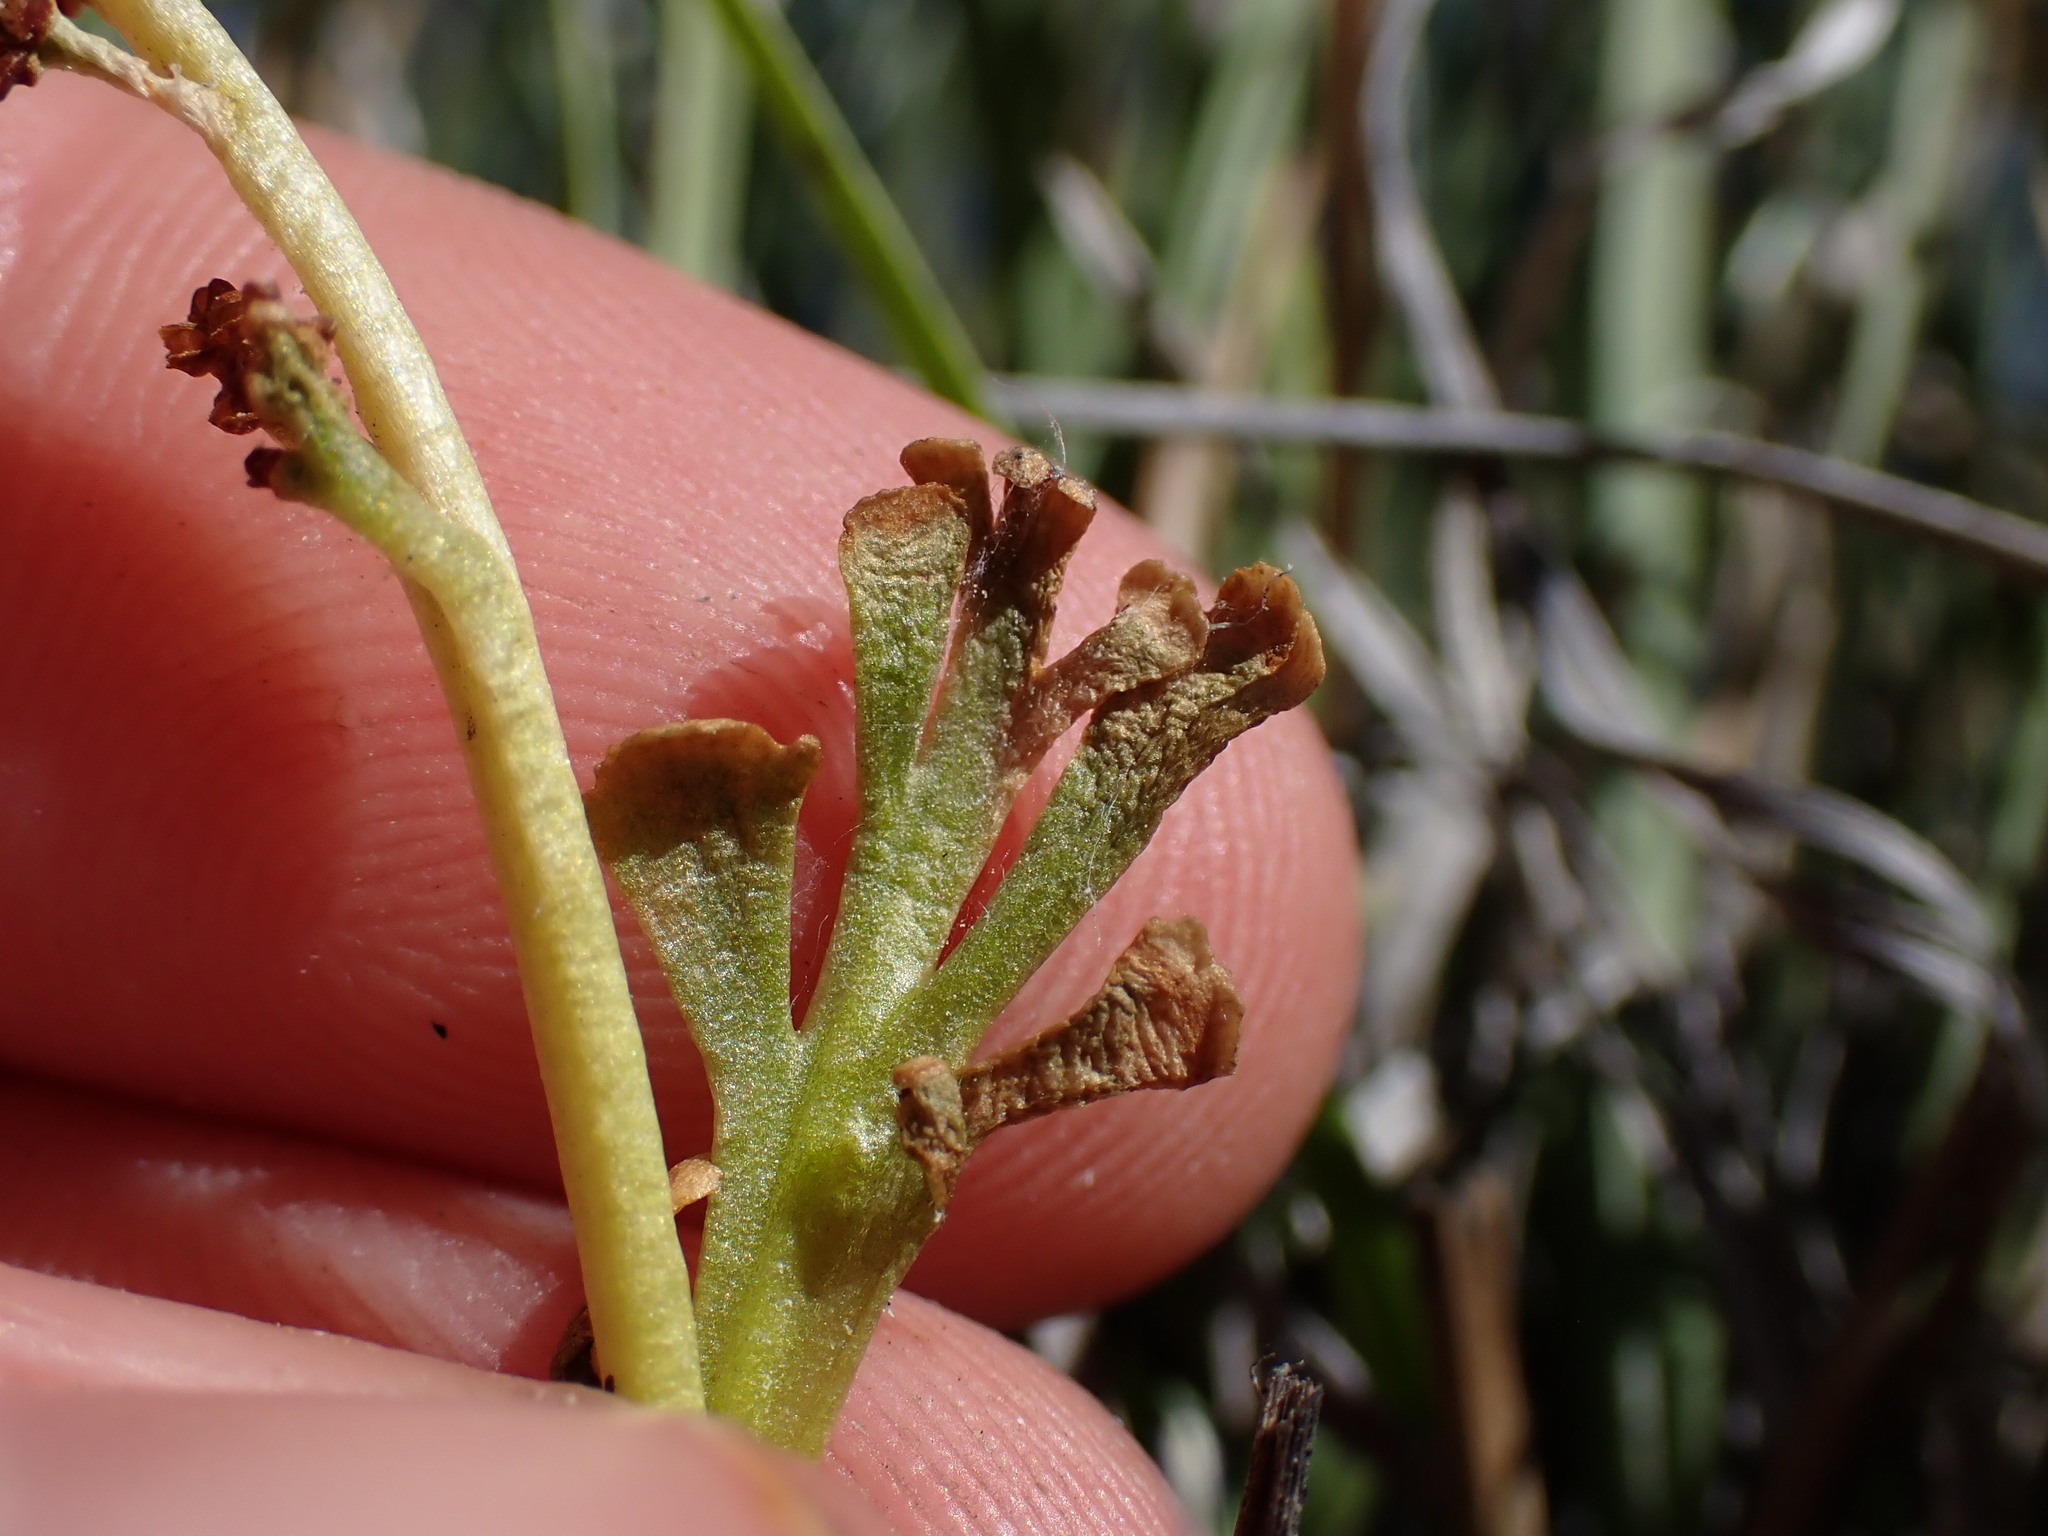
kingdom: Plantae
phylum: Tracheophyta
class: Polypodiopsida
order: Ophioglossales
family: Ophioglossaceae
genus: Botrychium
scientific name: Botrychium ascendens
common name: Ascending grapefern
